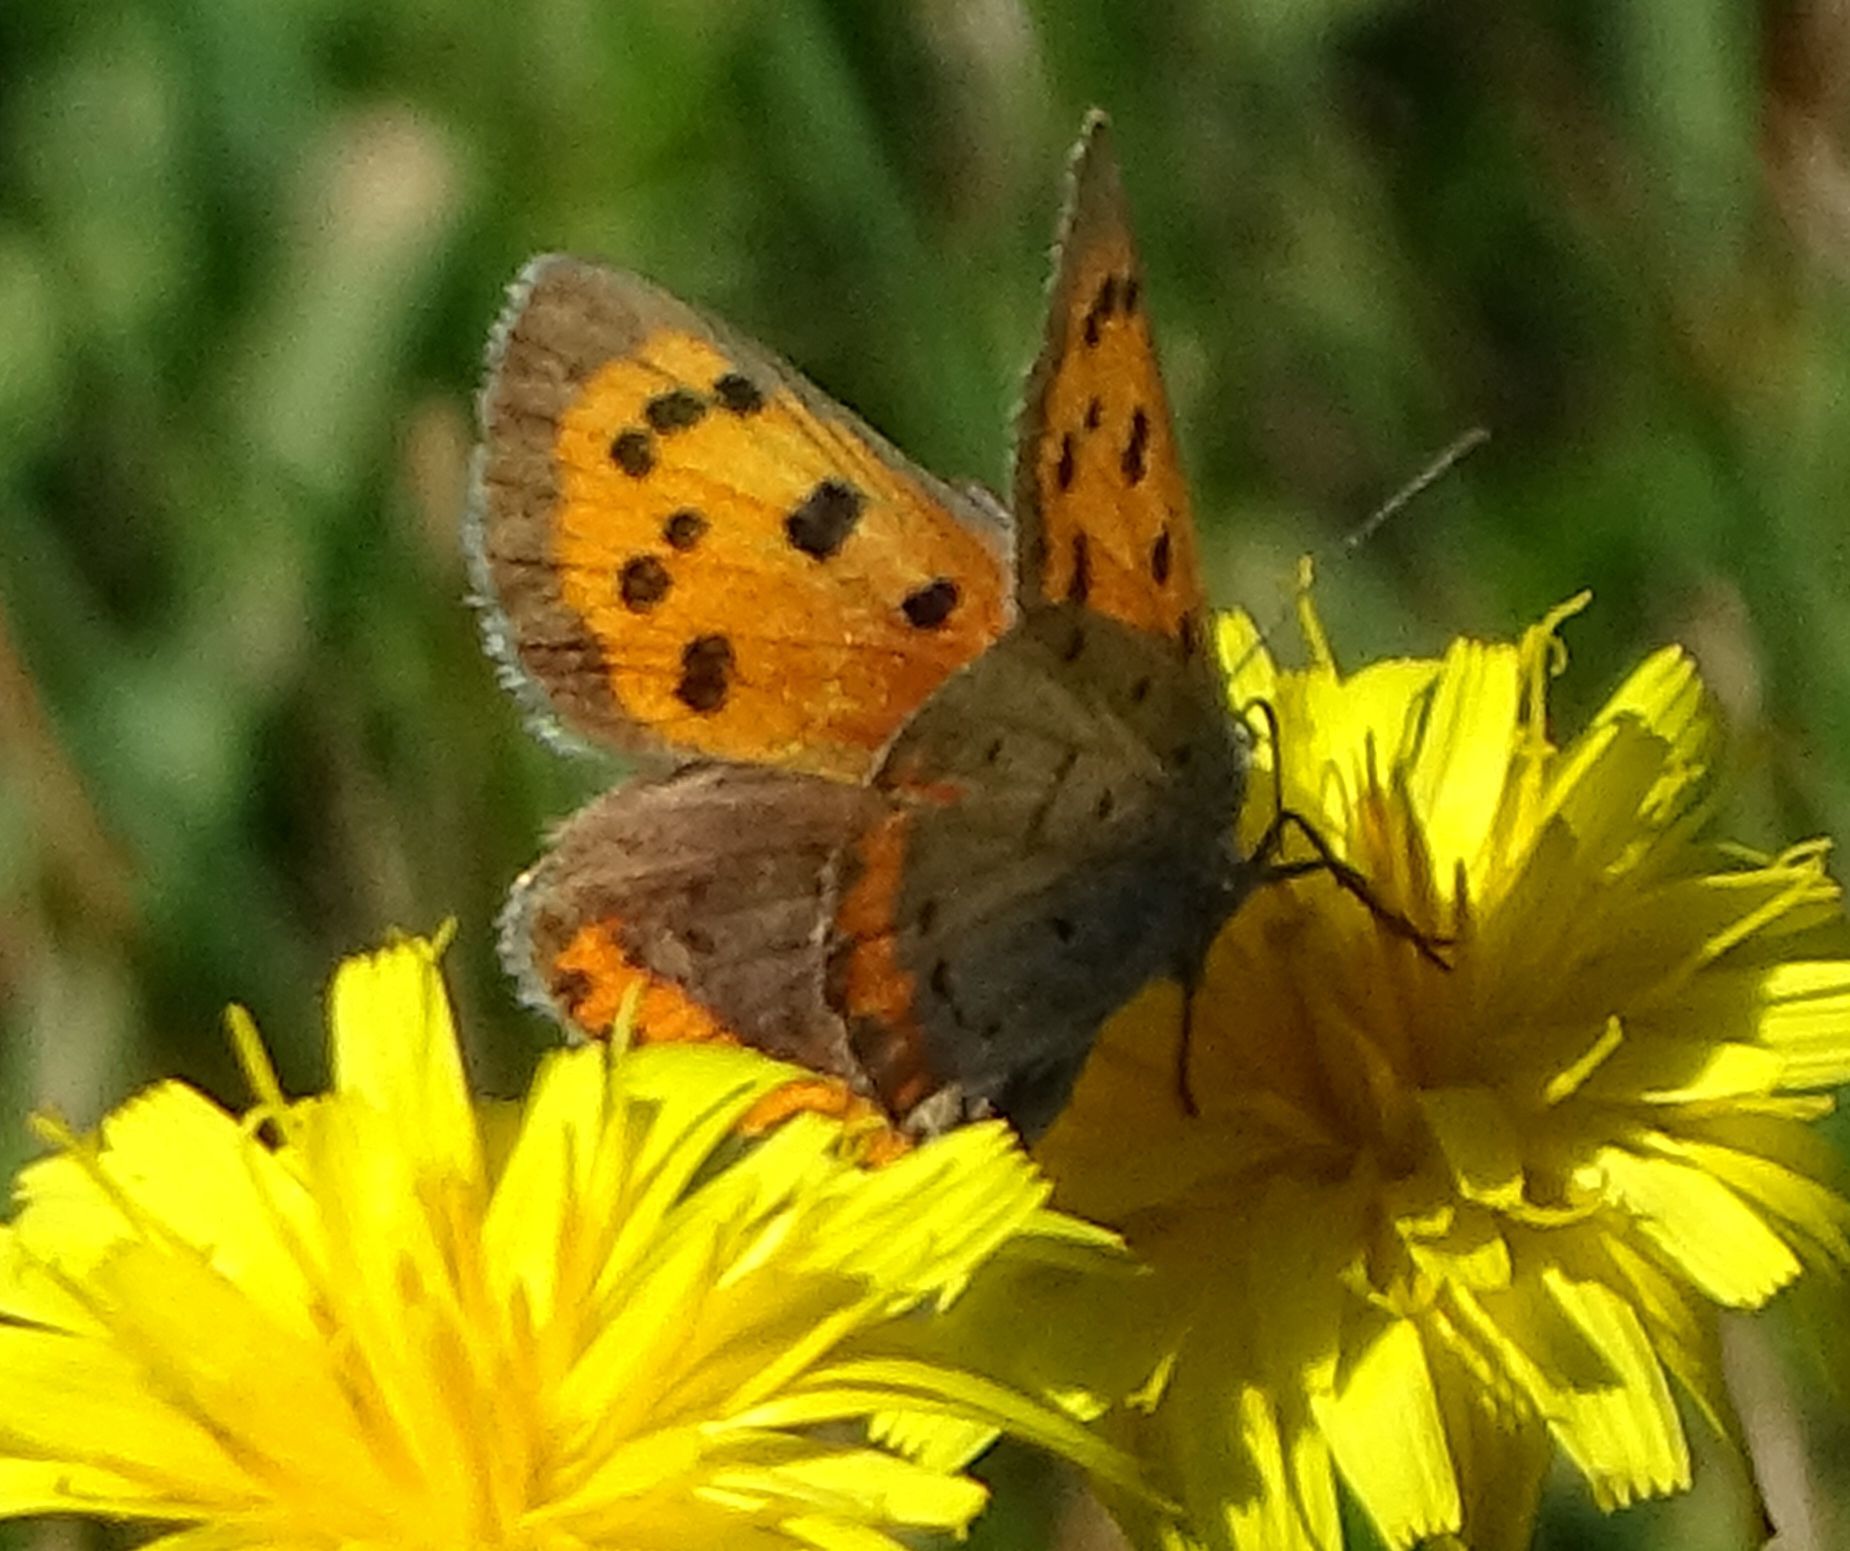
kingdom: Animalia
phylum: Arthropoda
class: Insecta
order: Lepidoptera
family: Lycaenidae
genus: Lycaena
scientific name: Lycaena hypophlaeas
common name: American copper
